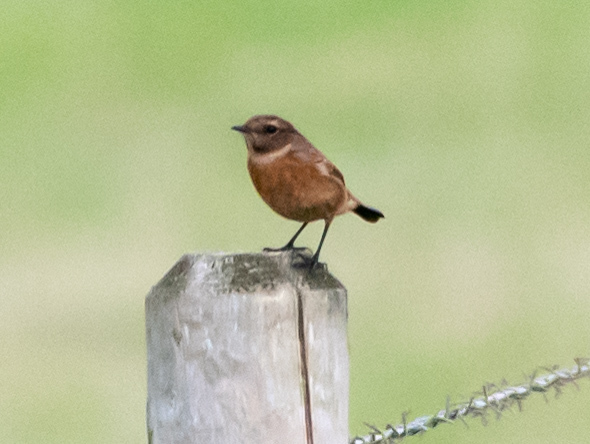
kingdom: Animalia
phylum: Chordata
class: Aves
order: Passeriformes
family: Muscicapidae
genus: Saxicola
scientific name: Saxicola rubicola
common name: European stonechat
